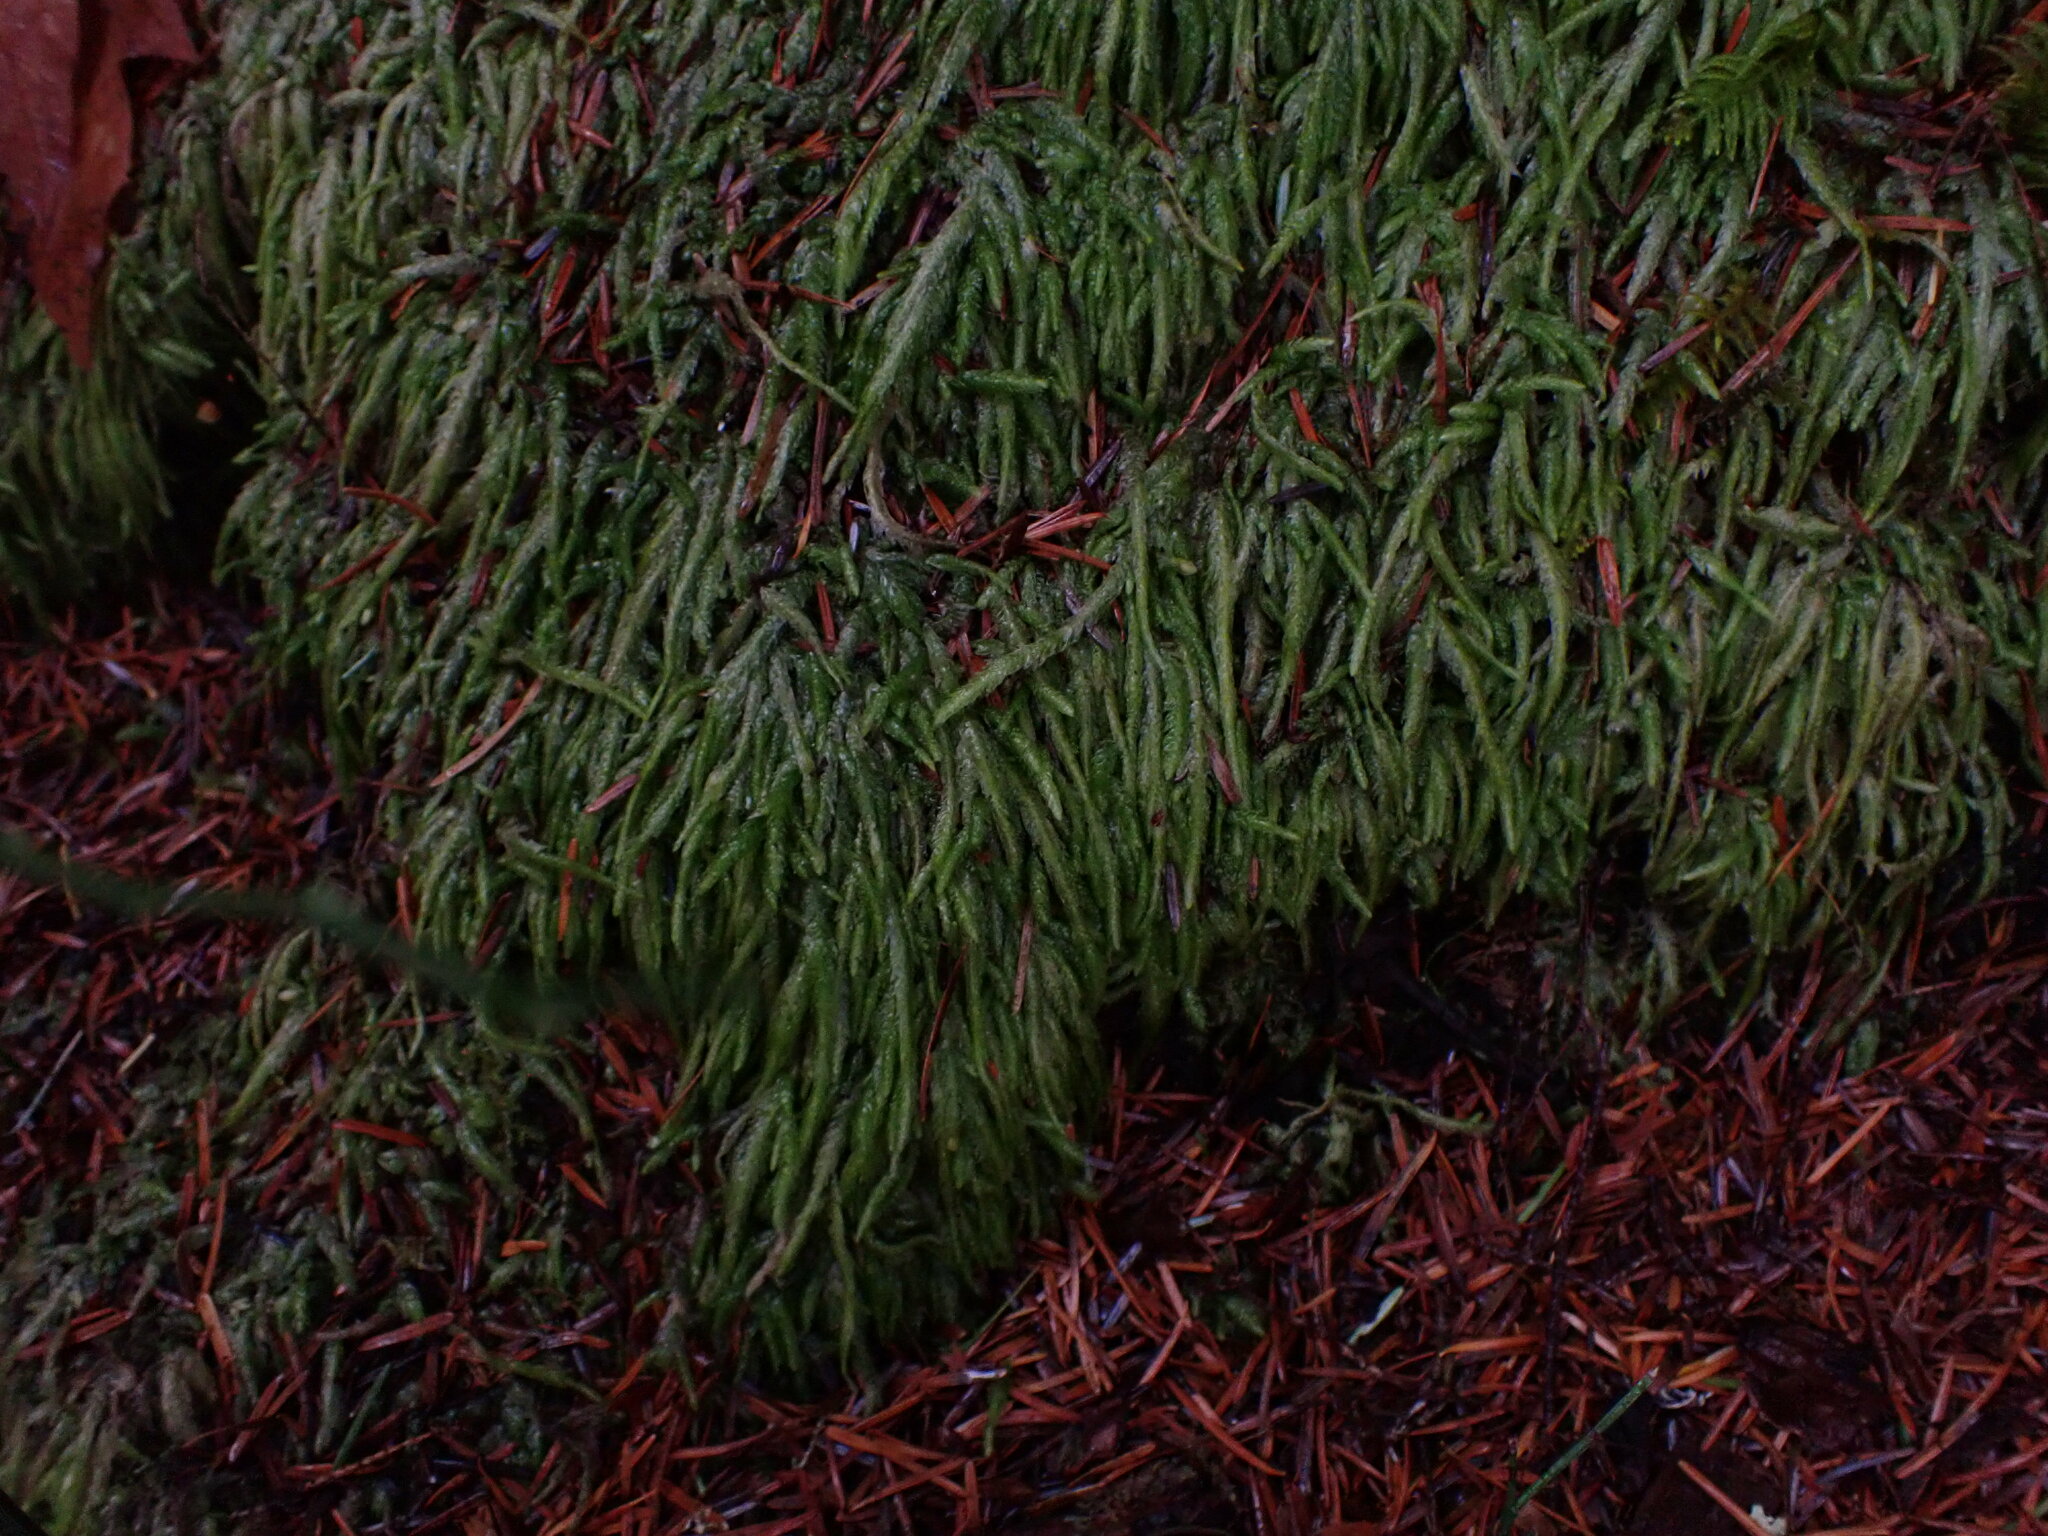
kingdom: Plantae
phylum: Bryophyta
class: Bryopsida
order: Hypnales
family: Plagiotheciaceae
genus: Plagiothecium
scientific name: Plagiothecium undulatum
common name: Waved silk-moss
